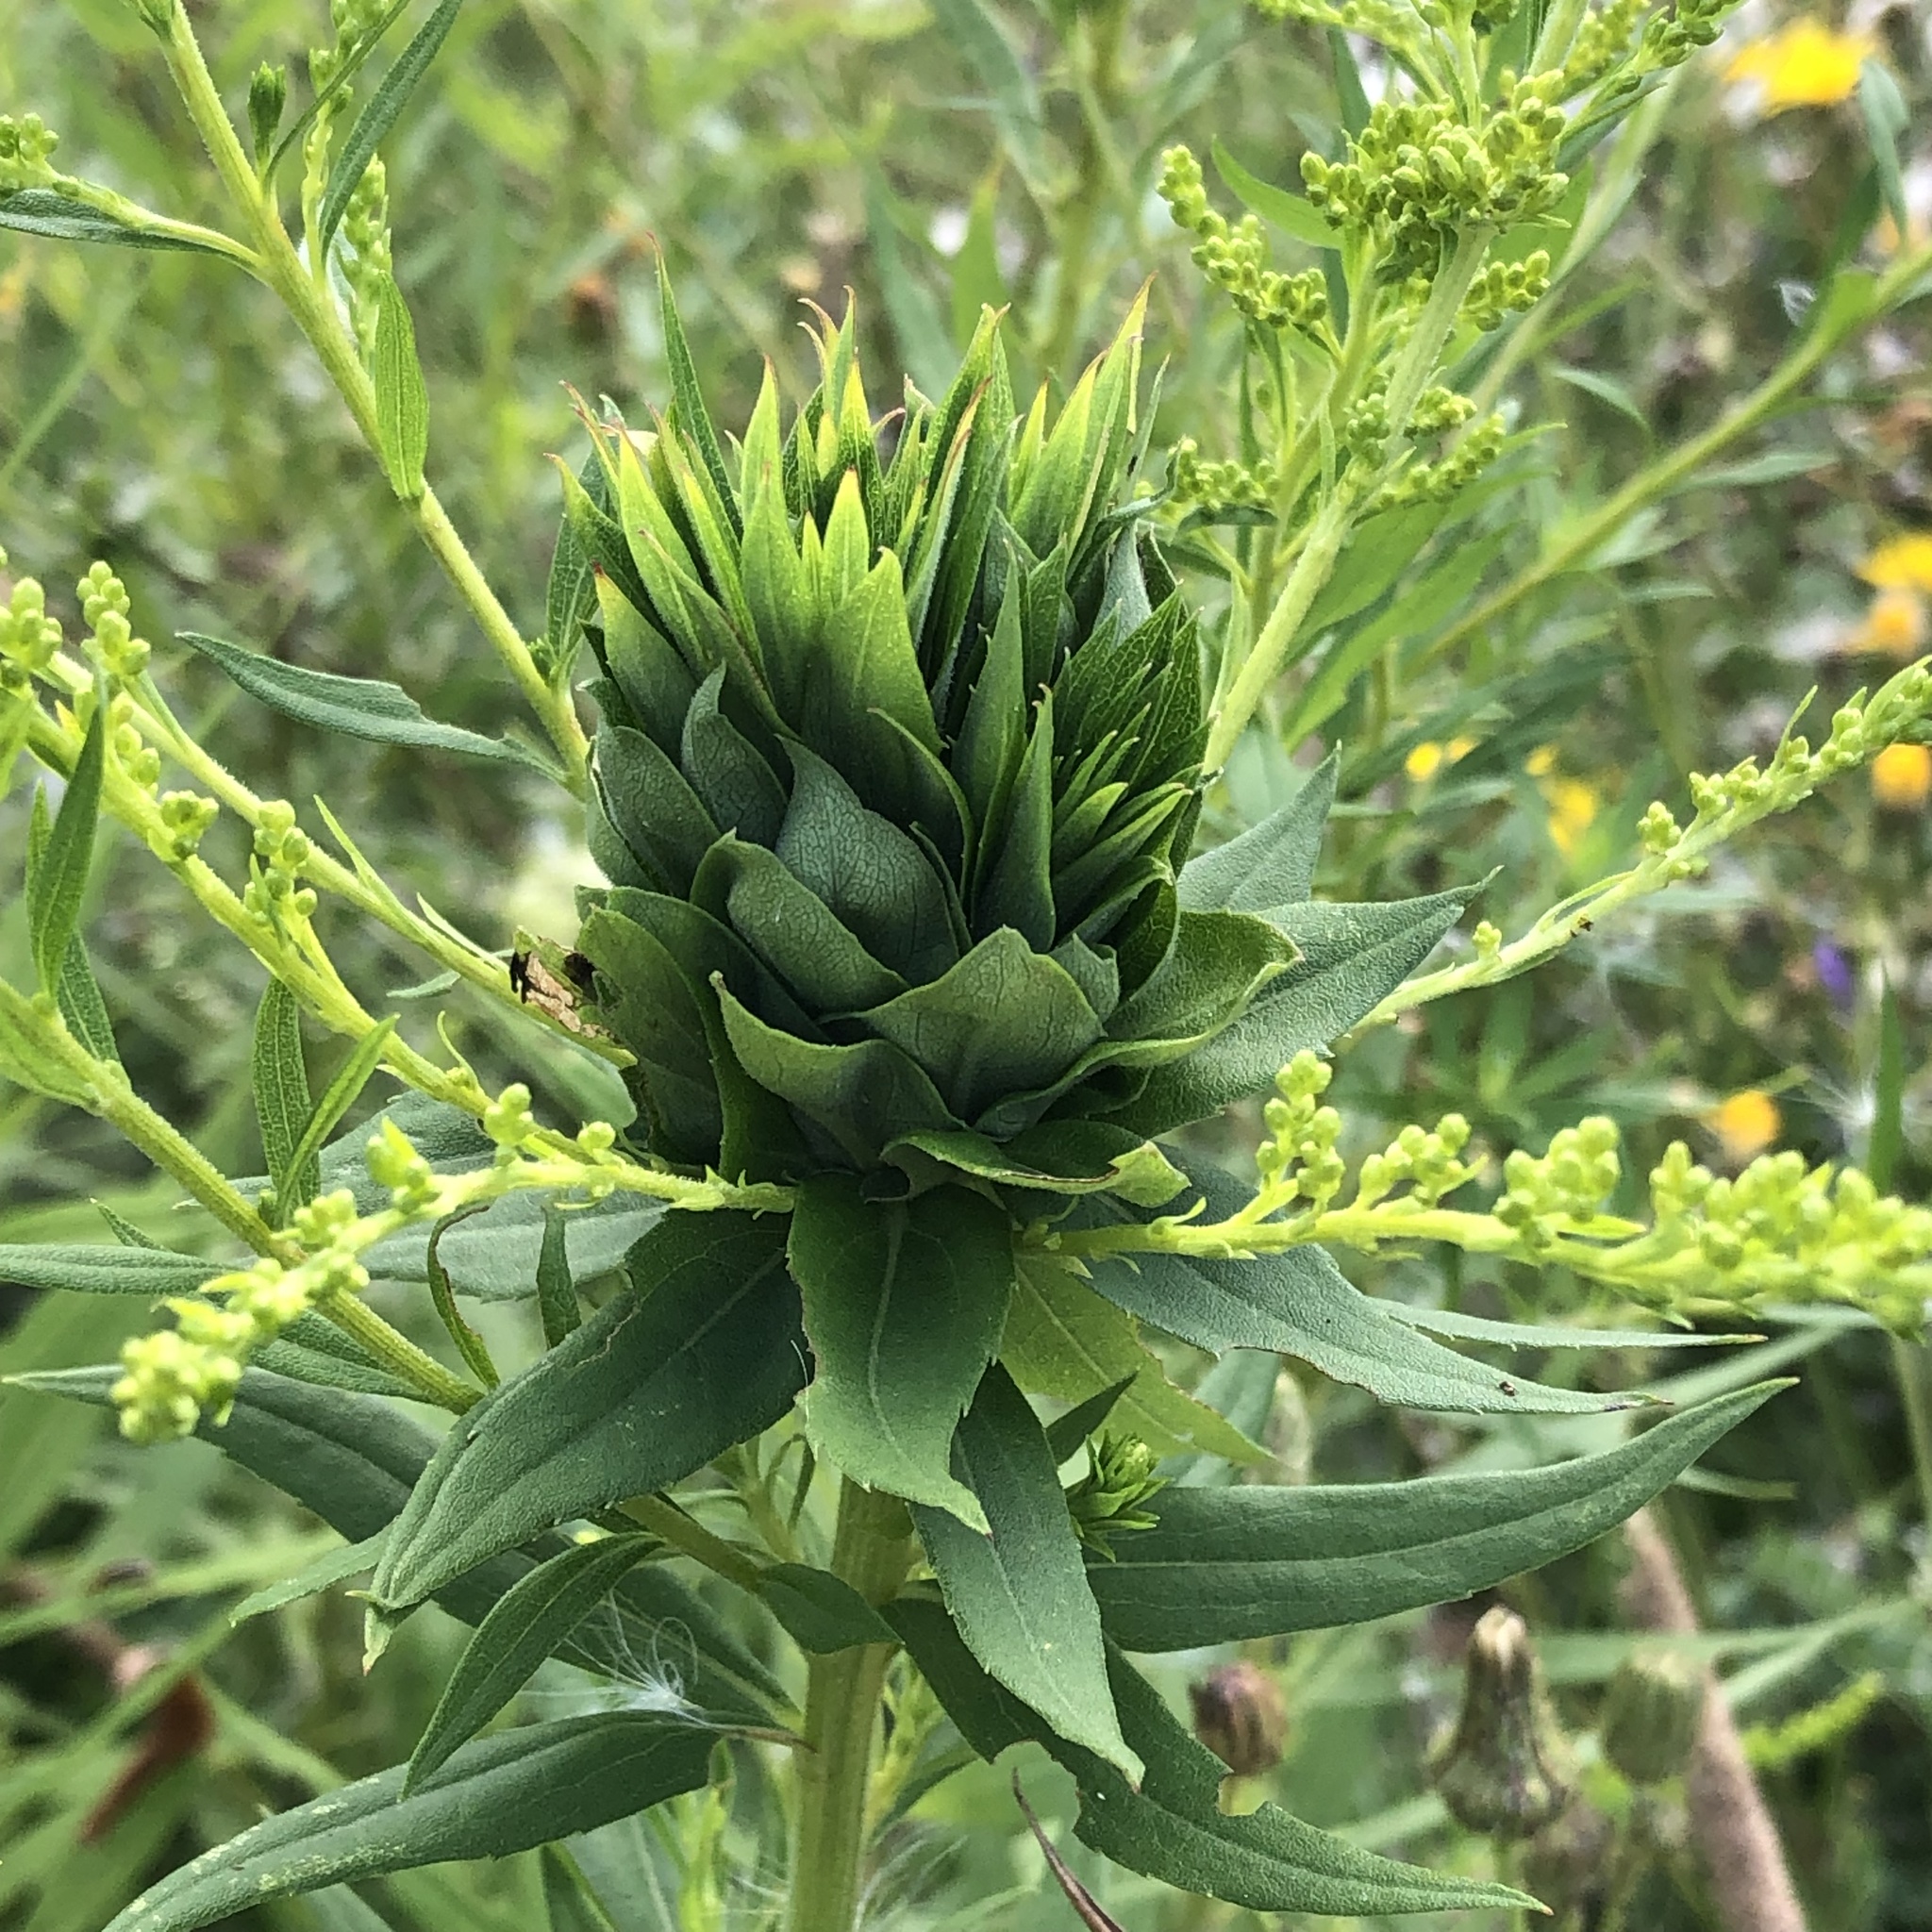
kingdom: Animalia
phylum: Arthropoda
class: Insecta
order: Diptera
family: Cecidomyiidae
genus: Rhopalomyia
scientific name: Rhopalomyia solidaginis
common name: Goldenrod bunch gall midge
